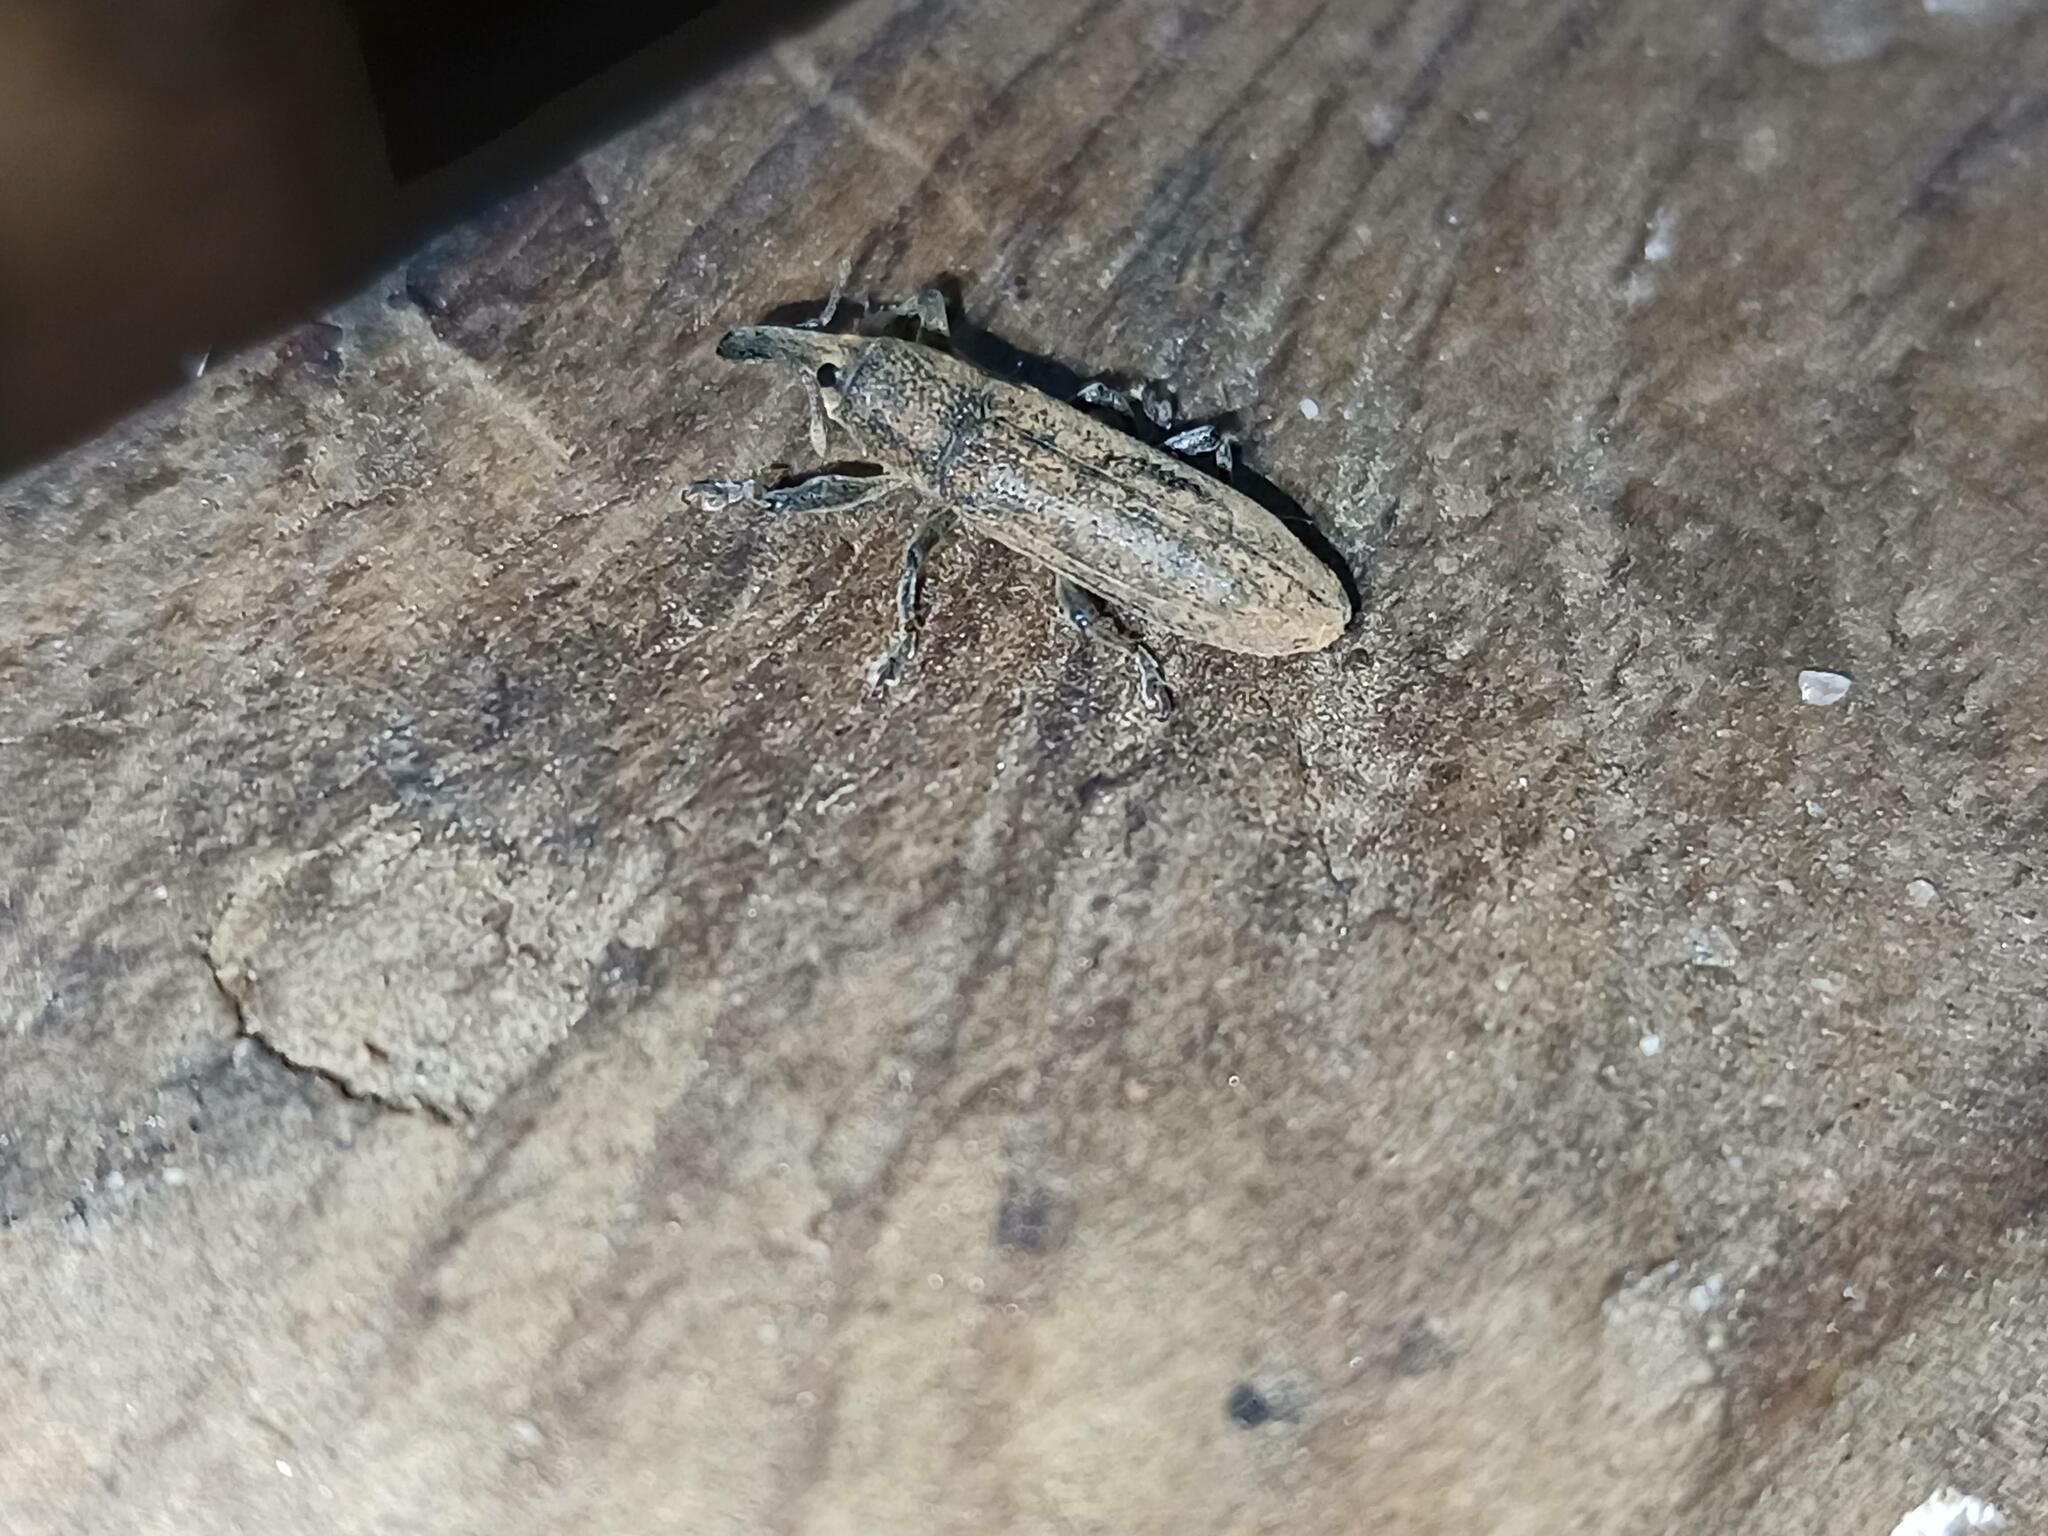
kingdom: Animalia
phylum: Arthropoda
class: Insecta
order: Coleoptera
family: Curculionidae
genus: Lixus
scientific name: Lixus linearis
